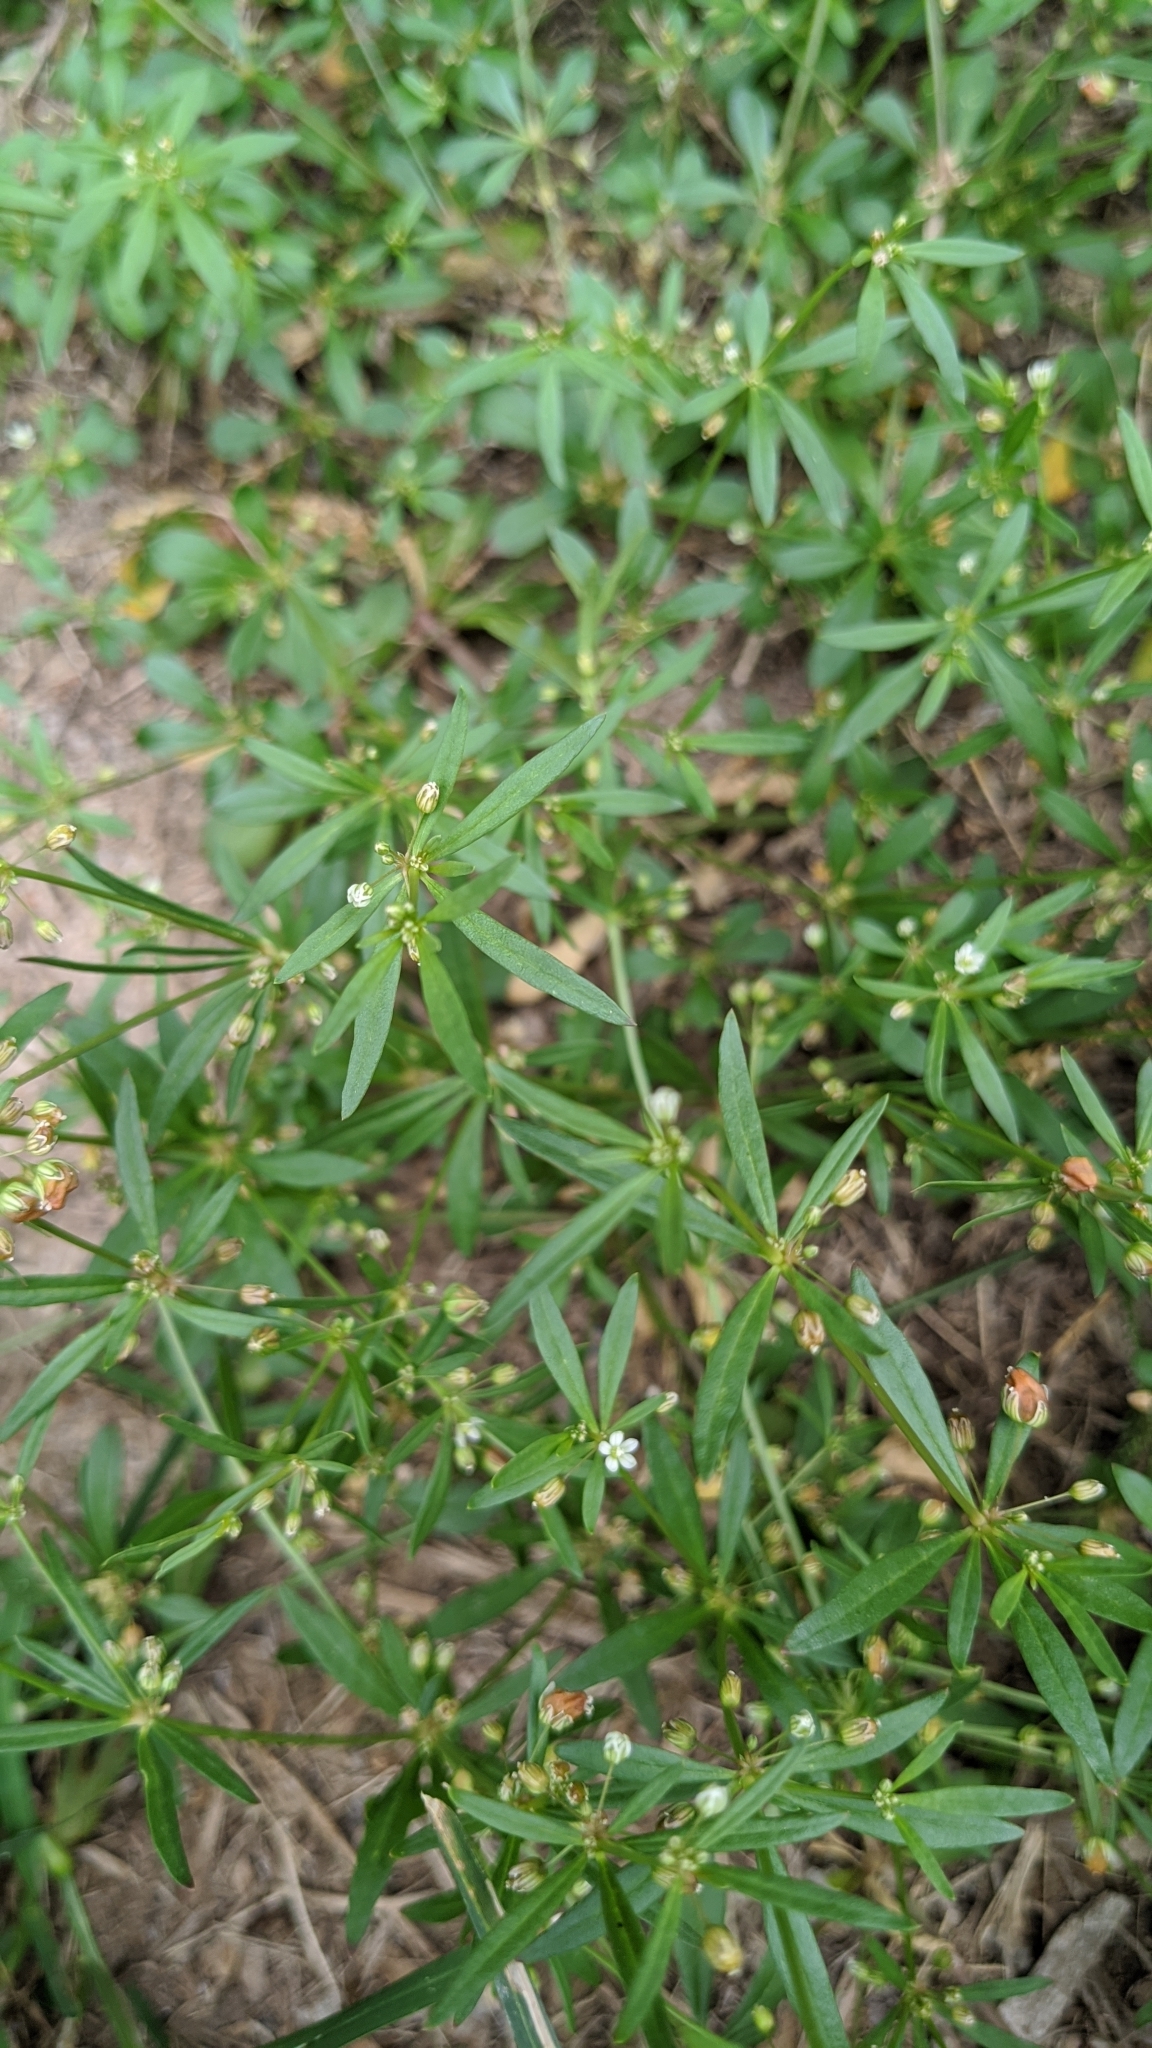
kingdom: Plantae
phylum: Tracheophyta
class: Magnoliopsida
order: Caryophyllales
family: Molluginaceae
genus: Mollugo
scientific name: Mollugo verticillata
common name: Green carpetweed
